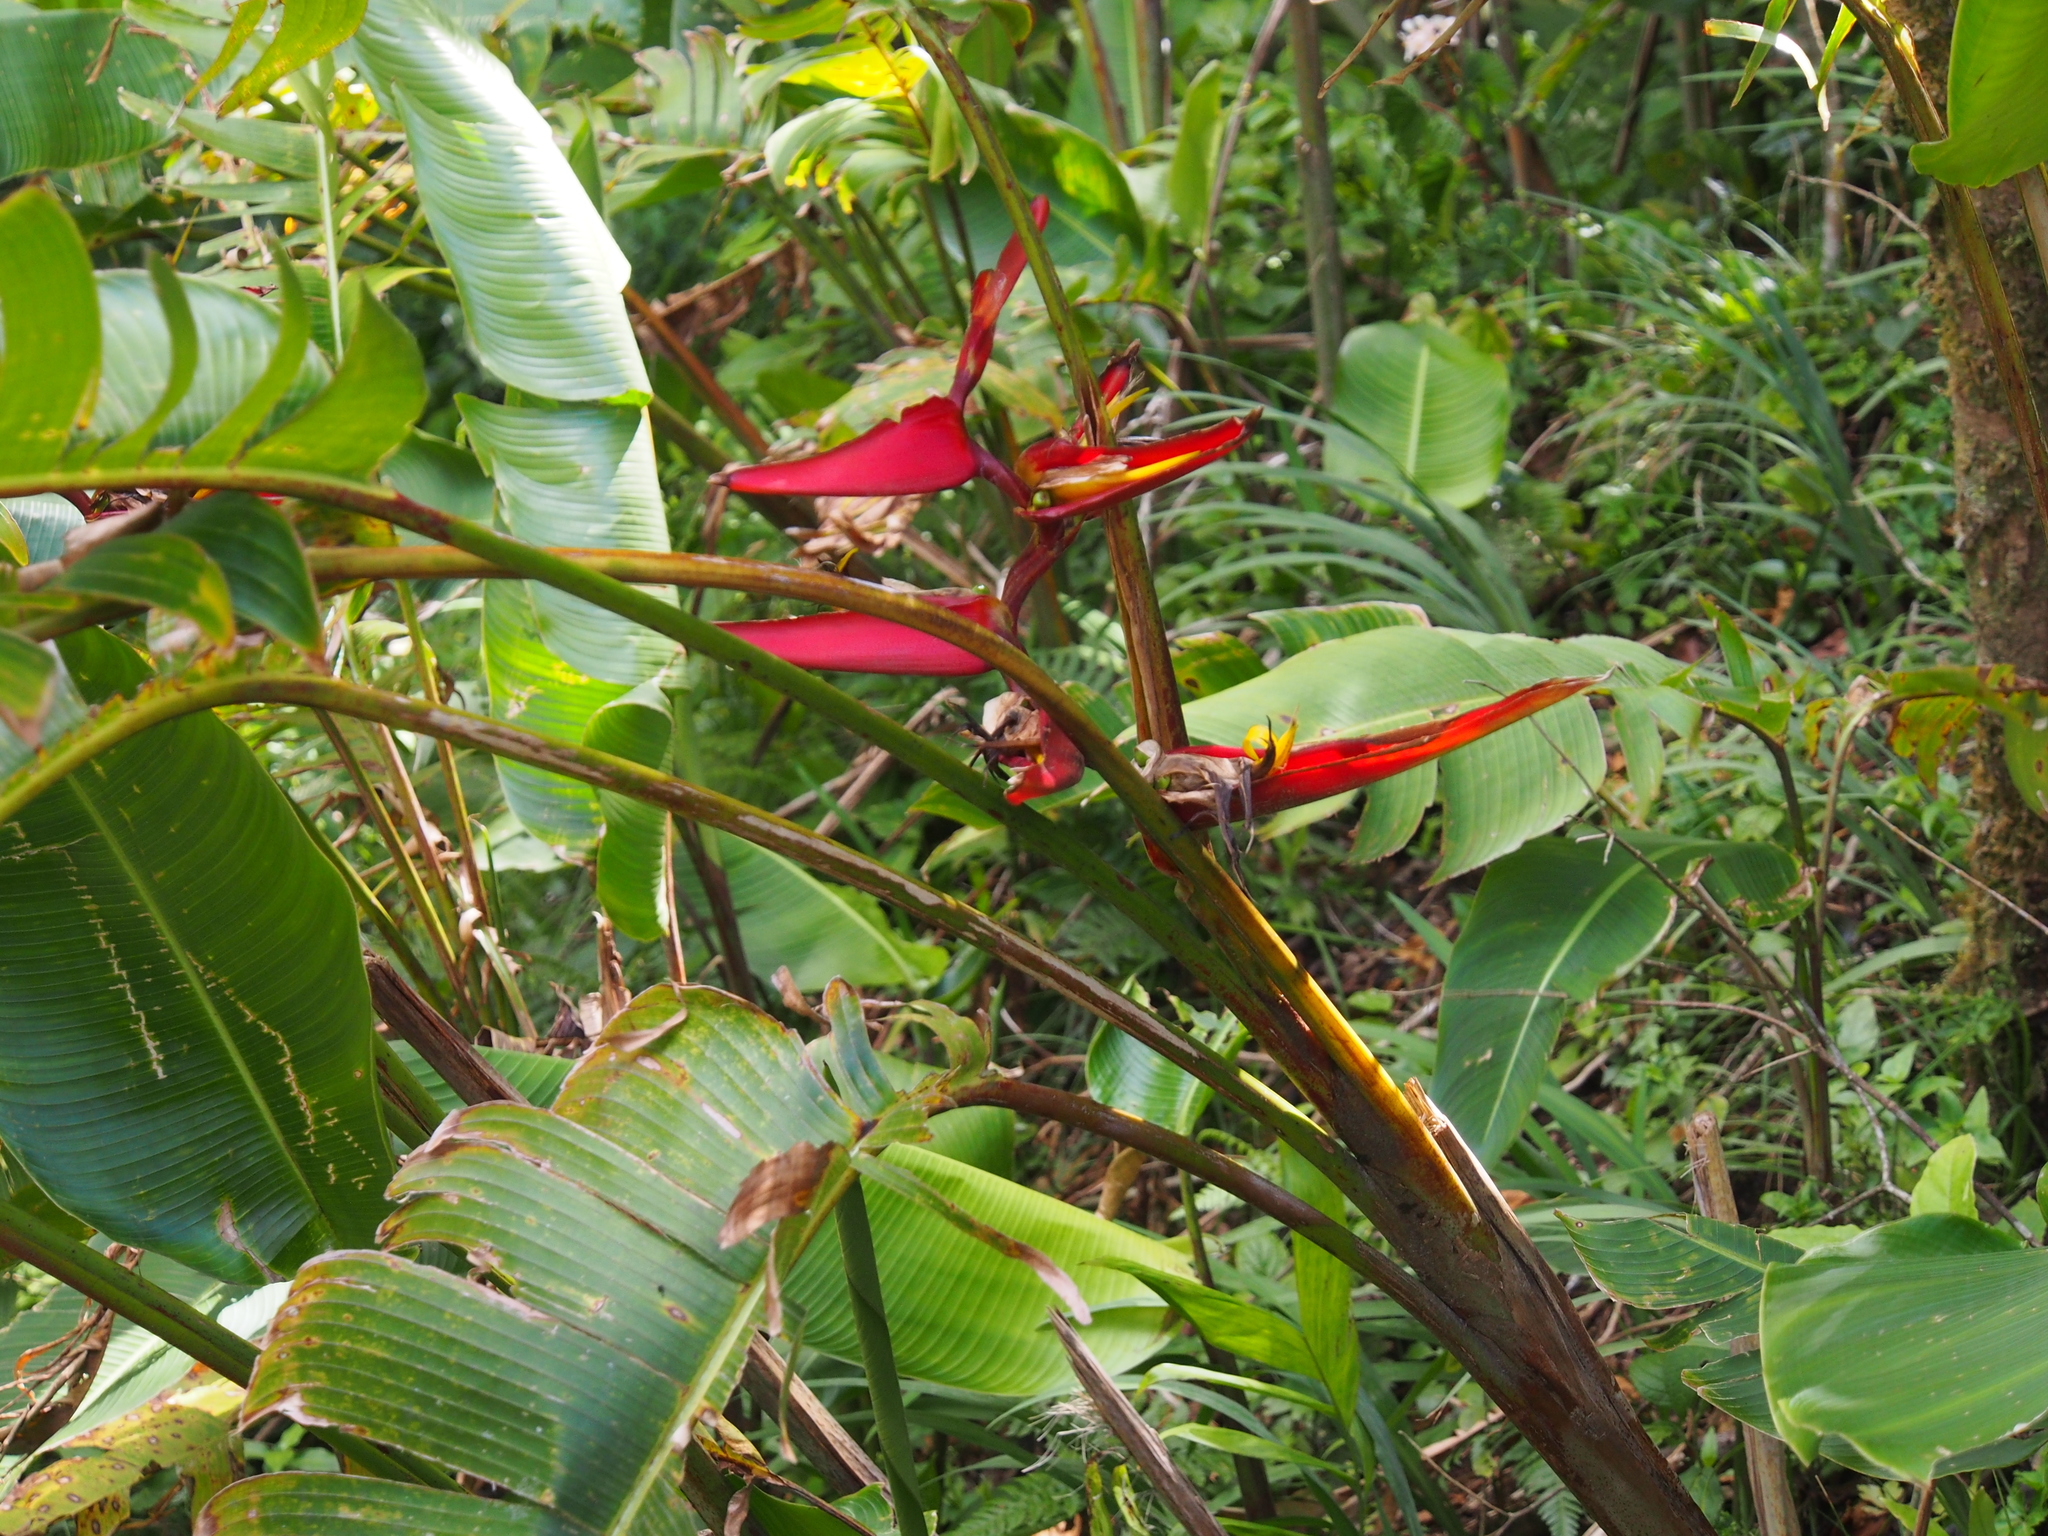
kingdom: Plantae
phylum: Tracheophyta
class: Liliopsida
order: Zingiberales
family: Heliconiaceae
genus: Heliconia
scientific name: Heliconia tortuosa
